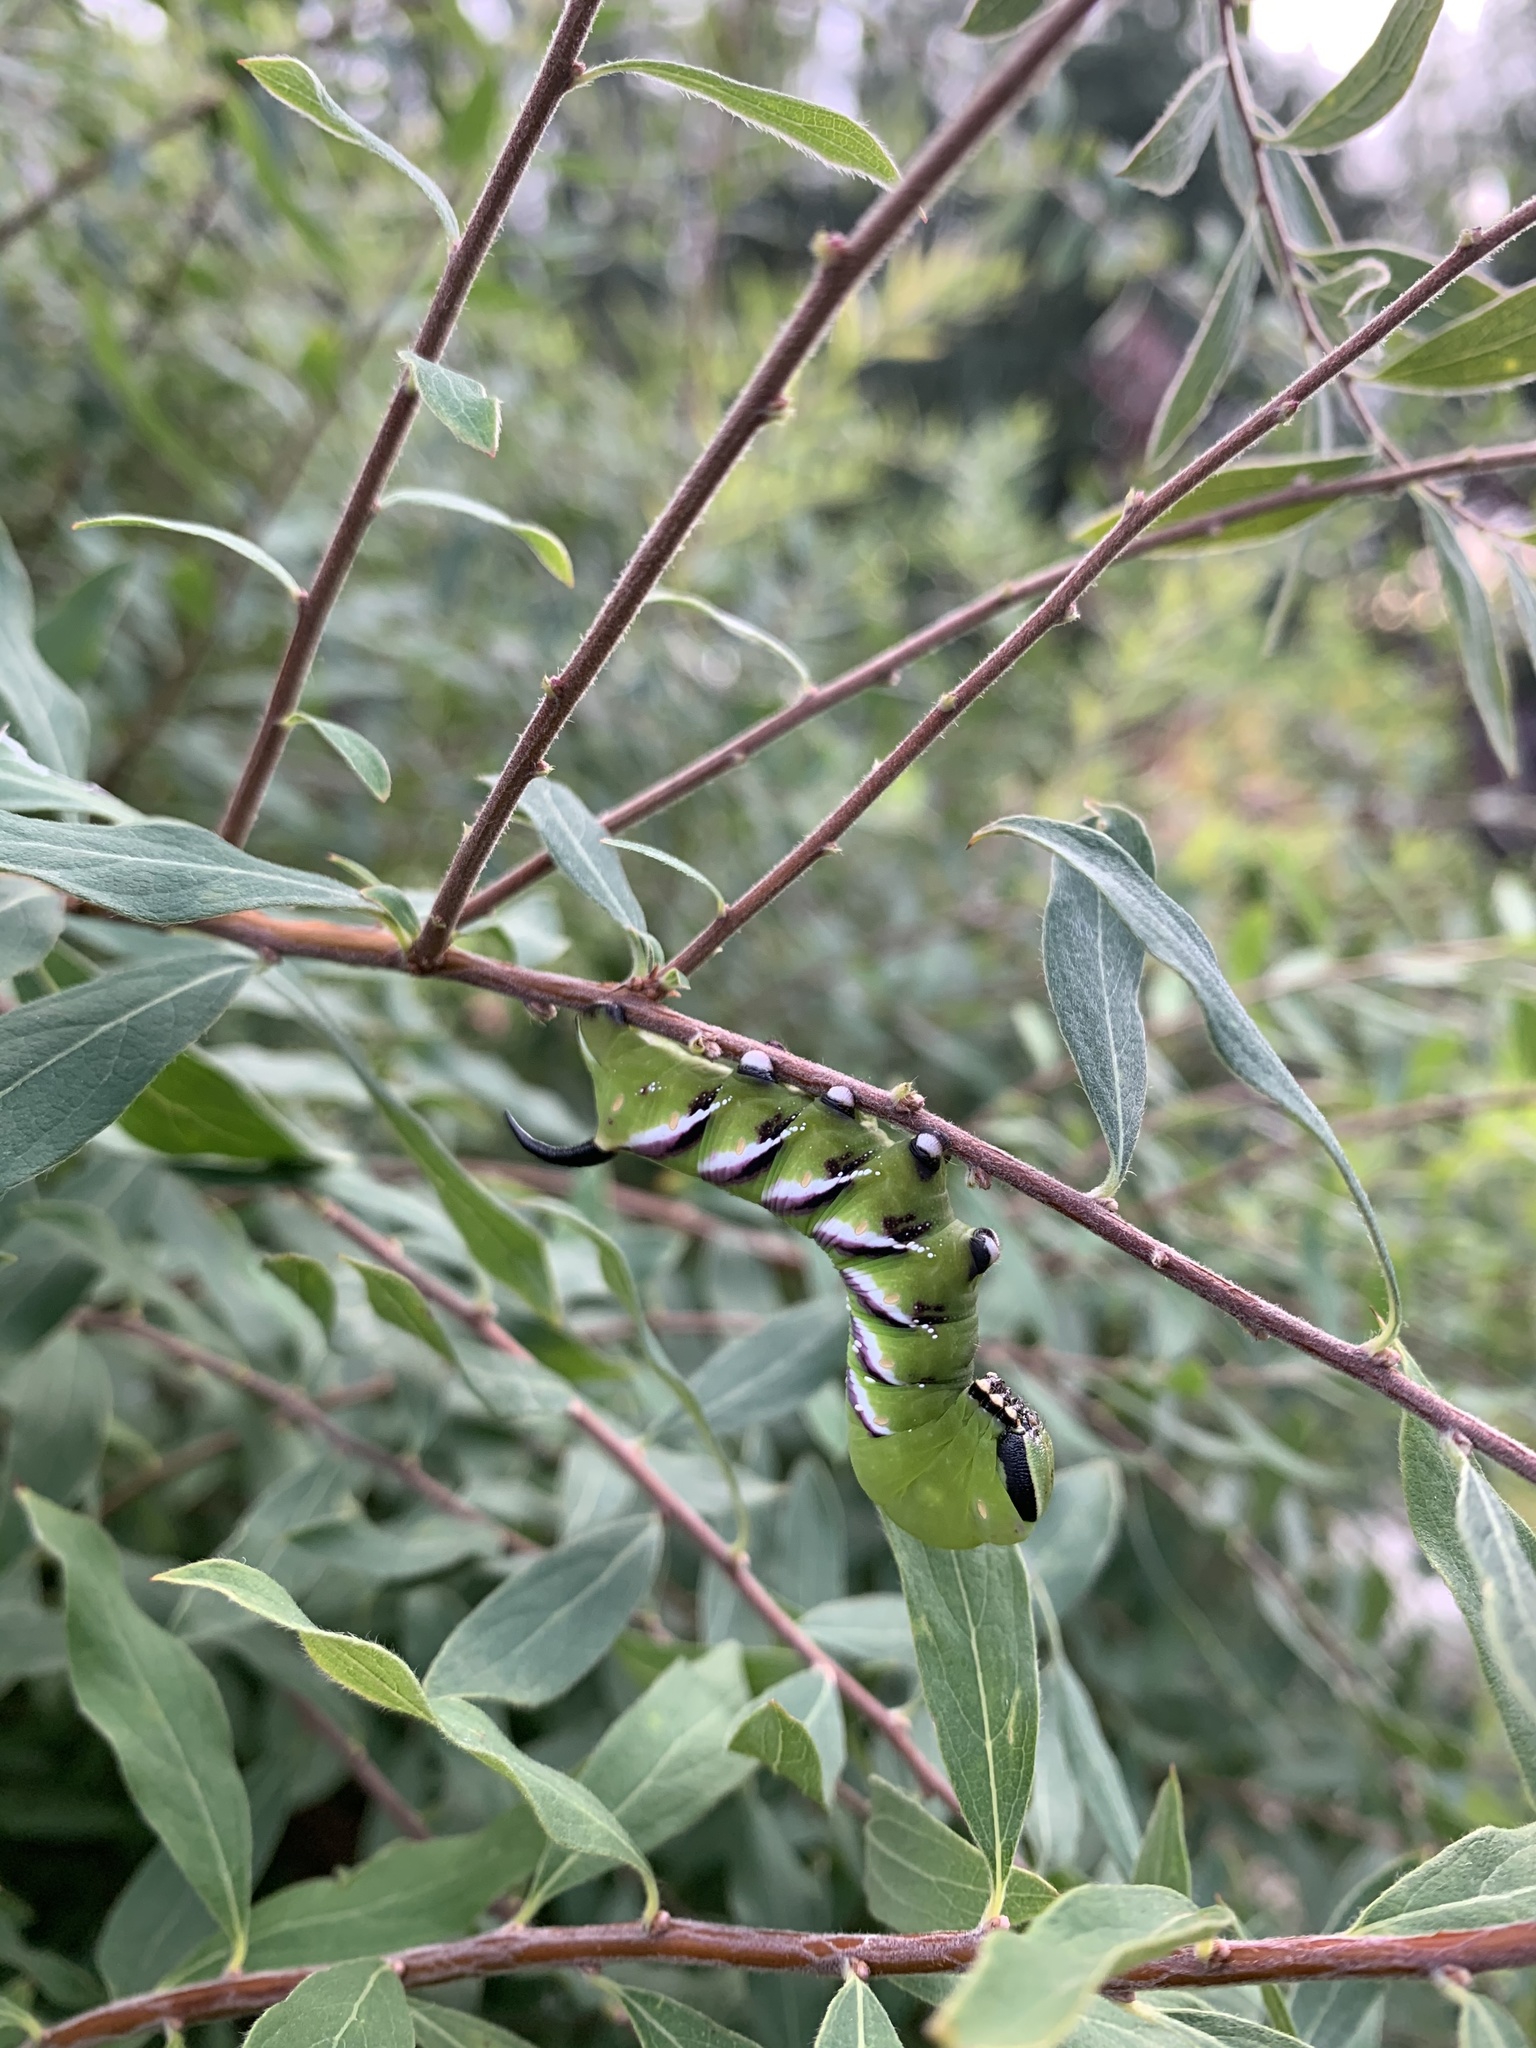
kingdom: Animalia
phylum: Arthropoda
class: Insecta
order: Lepidoptera
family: Sphingidae
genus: Sphinx
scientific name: Sphinx ligustri
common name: Privet hawk-moth
